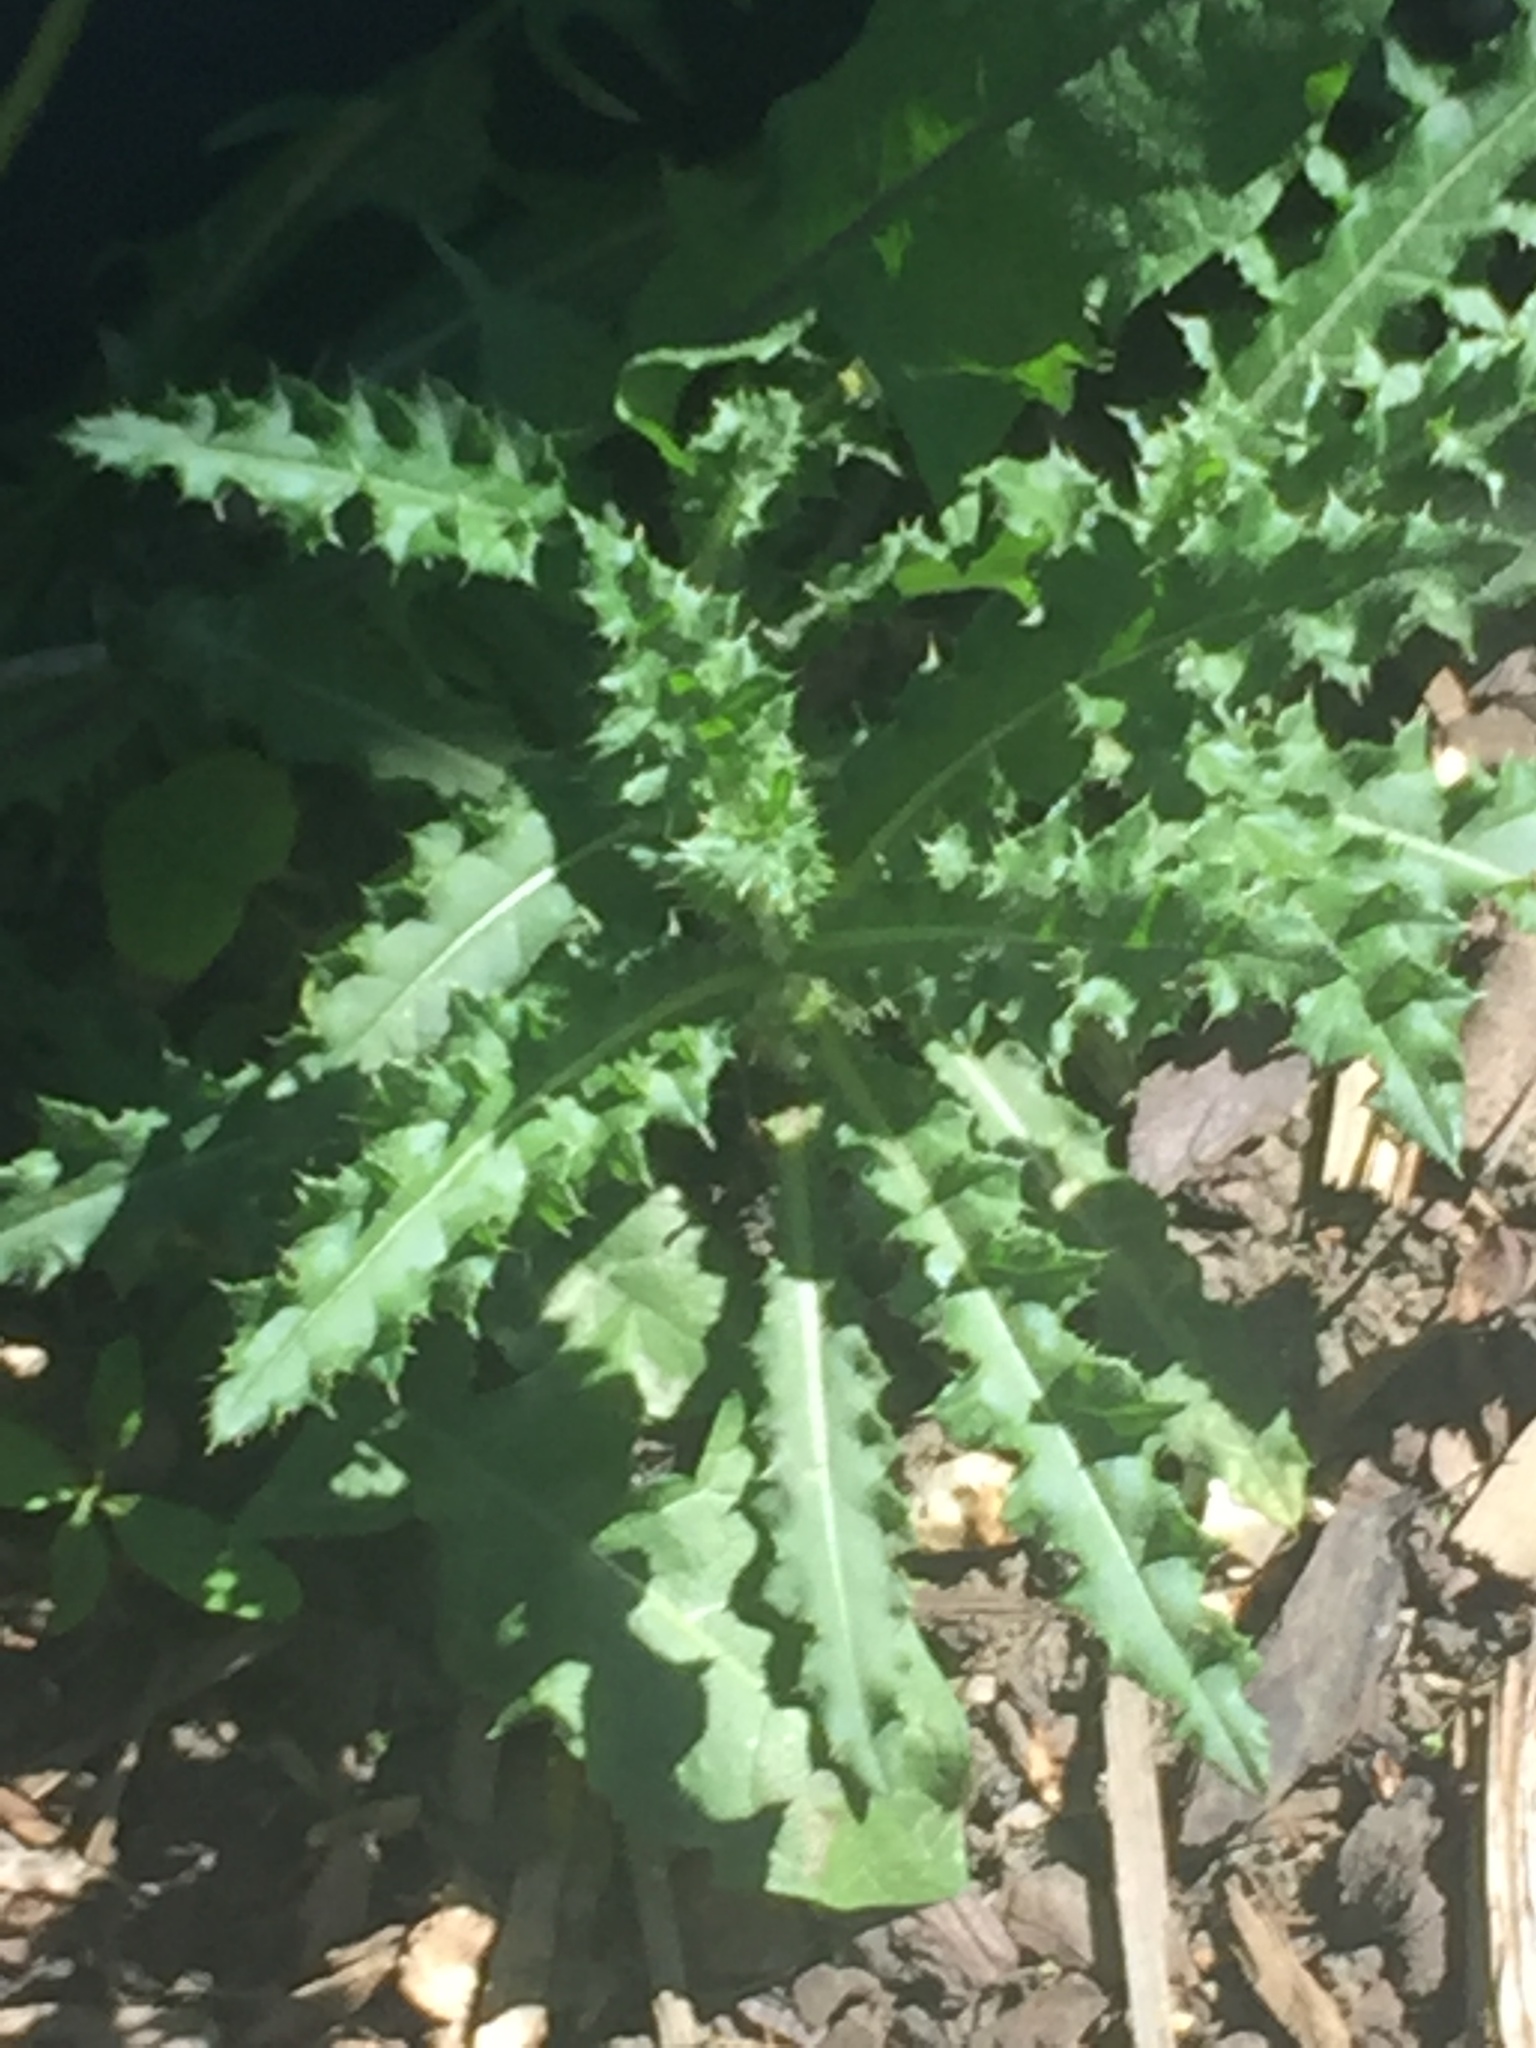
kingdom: Plantae
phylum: Tracheophyta
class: Magnoliopsida
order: Asterales
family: Asteraceae
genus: Cirsium
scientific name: Cirsium arvense
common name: Creeping thistle
